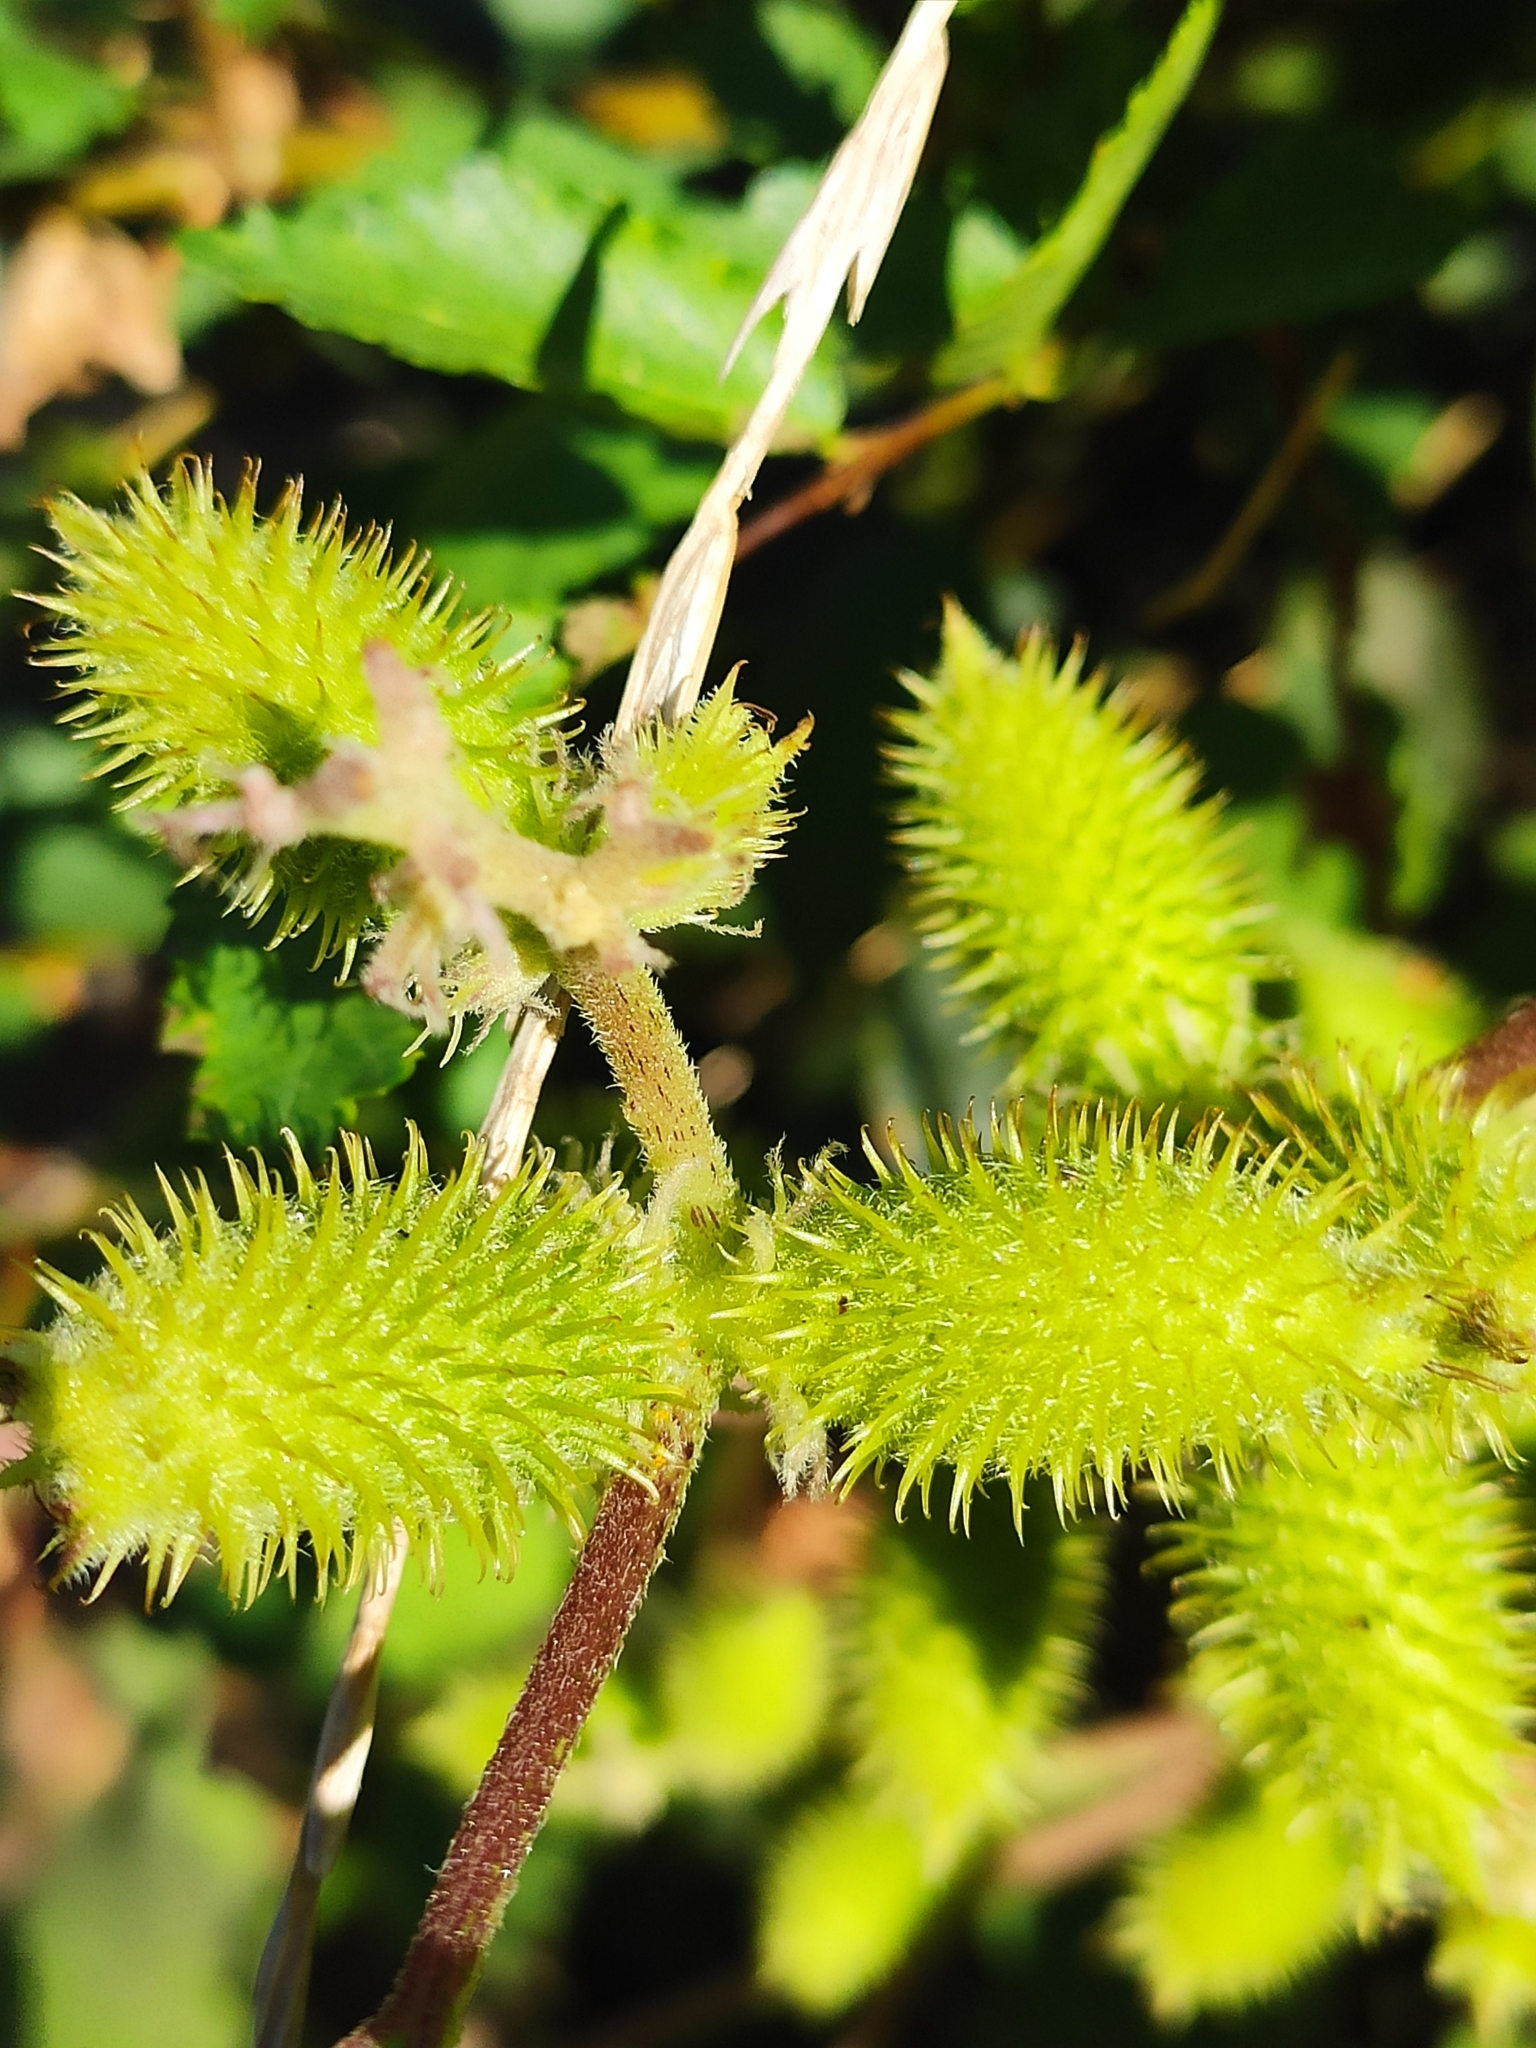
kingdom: Plantae
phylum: Tracheophyta
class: Magnoliopsida
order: Asterales
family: Asteraceae
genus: Xanthium
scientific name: Xanthium orientale
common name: Californian burr
